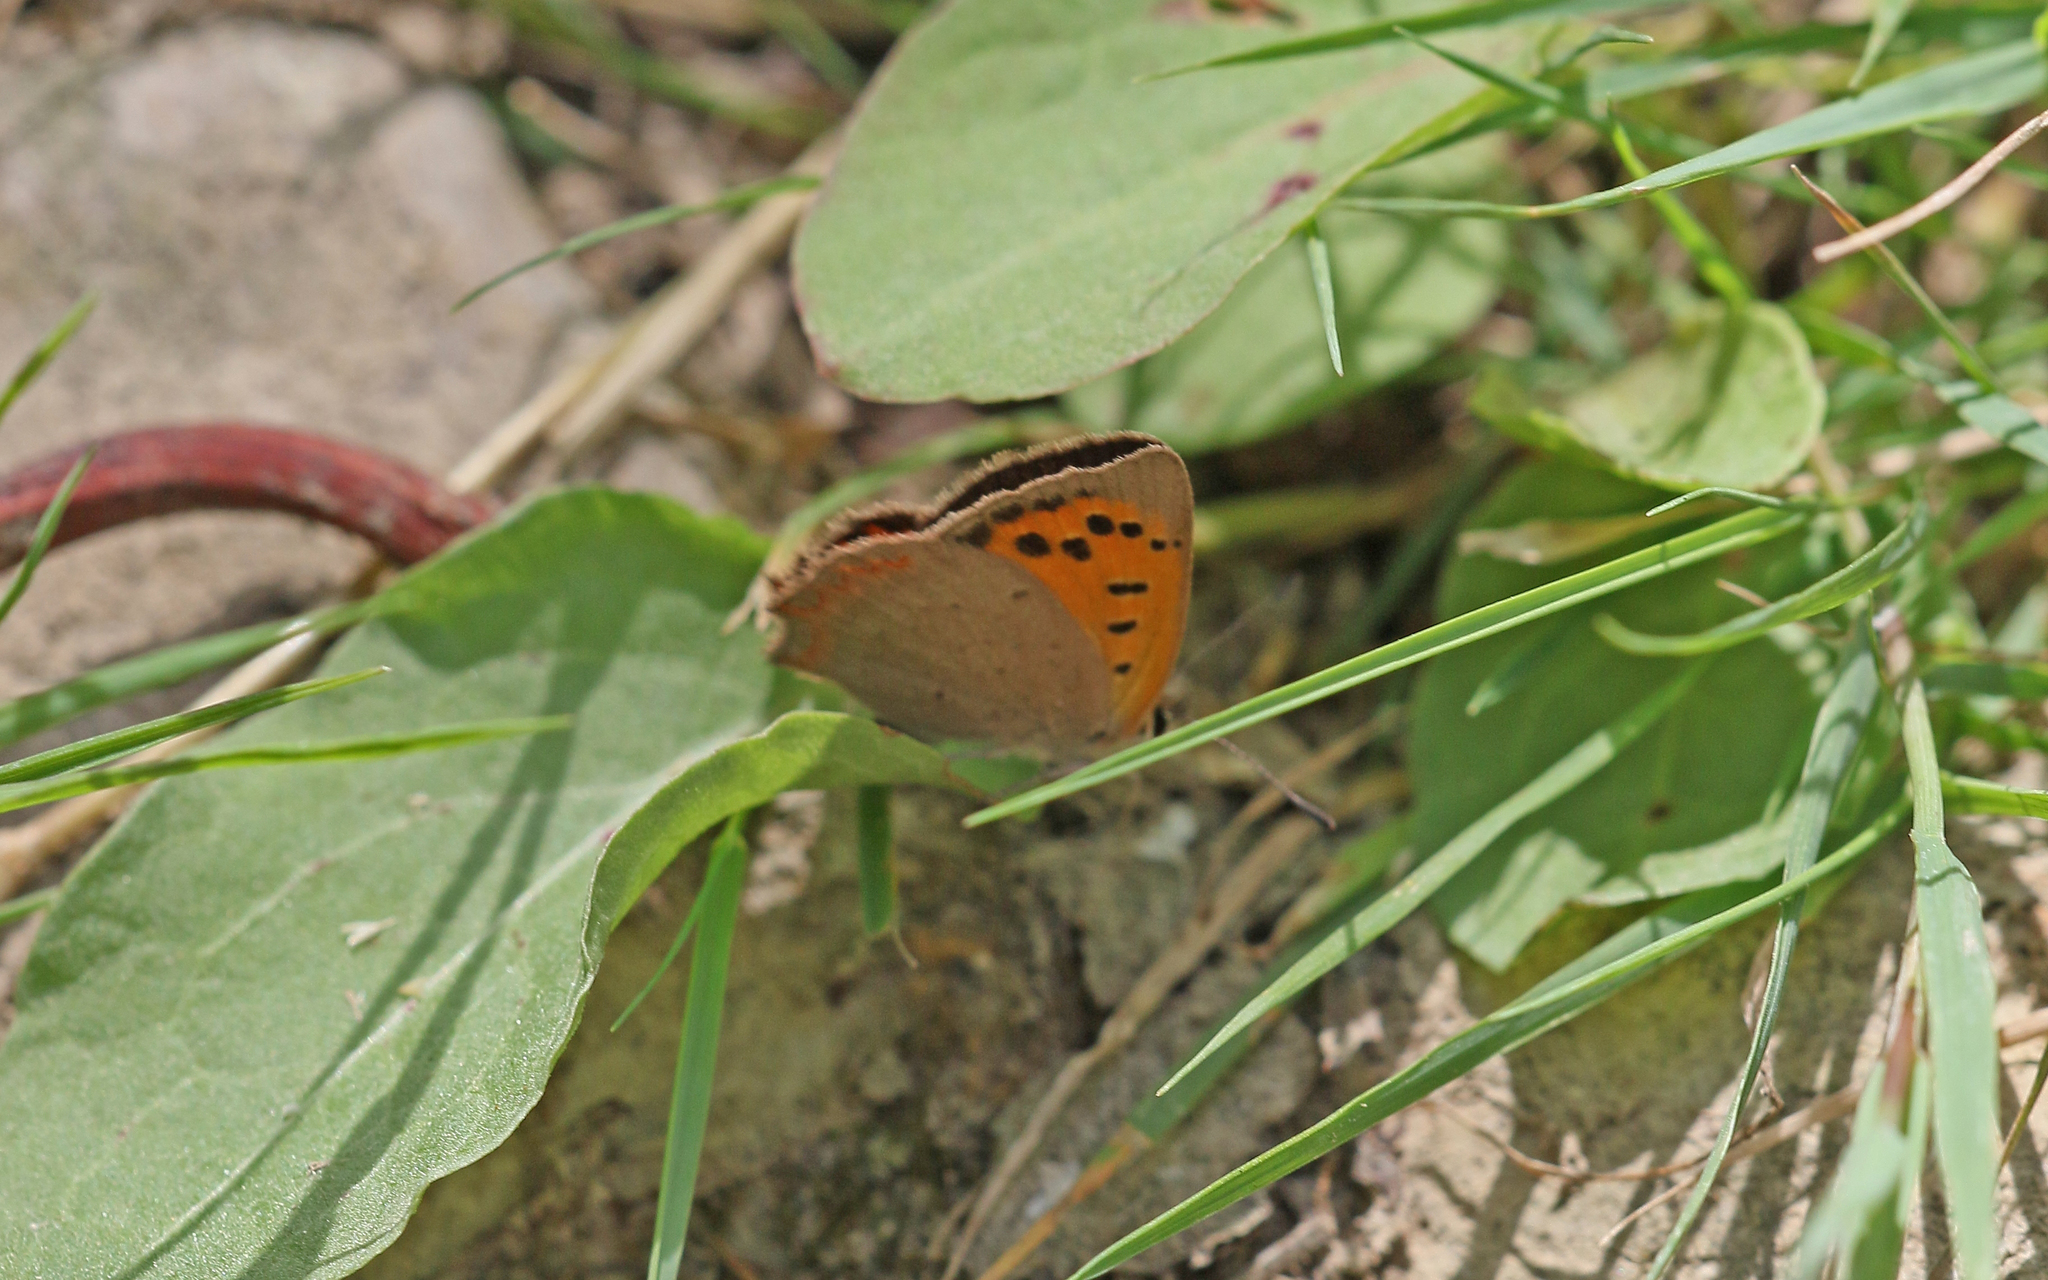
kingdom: Animalia
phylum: Arthropoda
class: Insecta
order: Lepidoptera
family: Lycaenidae
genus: Lycaena
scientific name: Lycaena phlaeas
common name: Small copper
